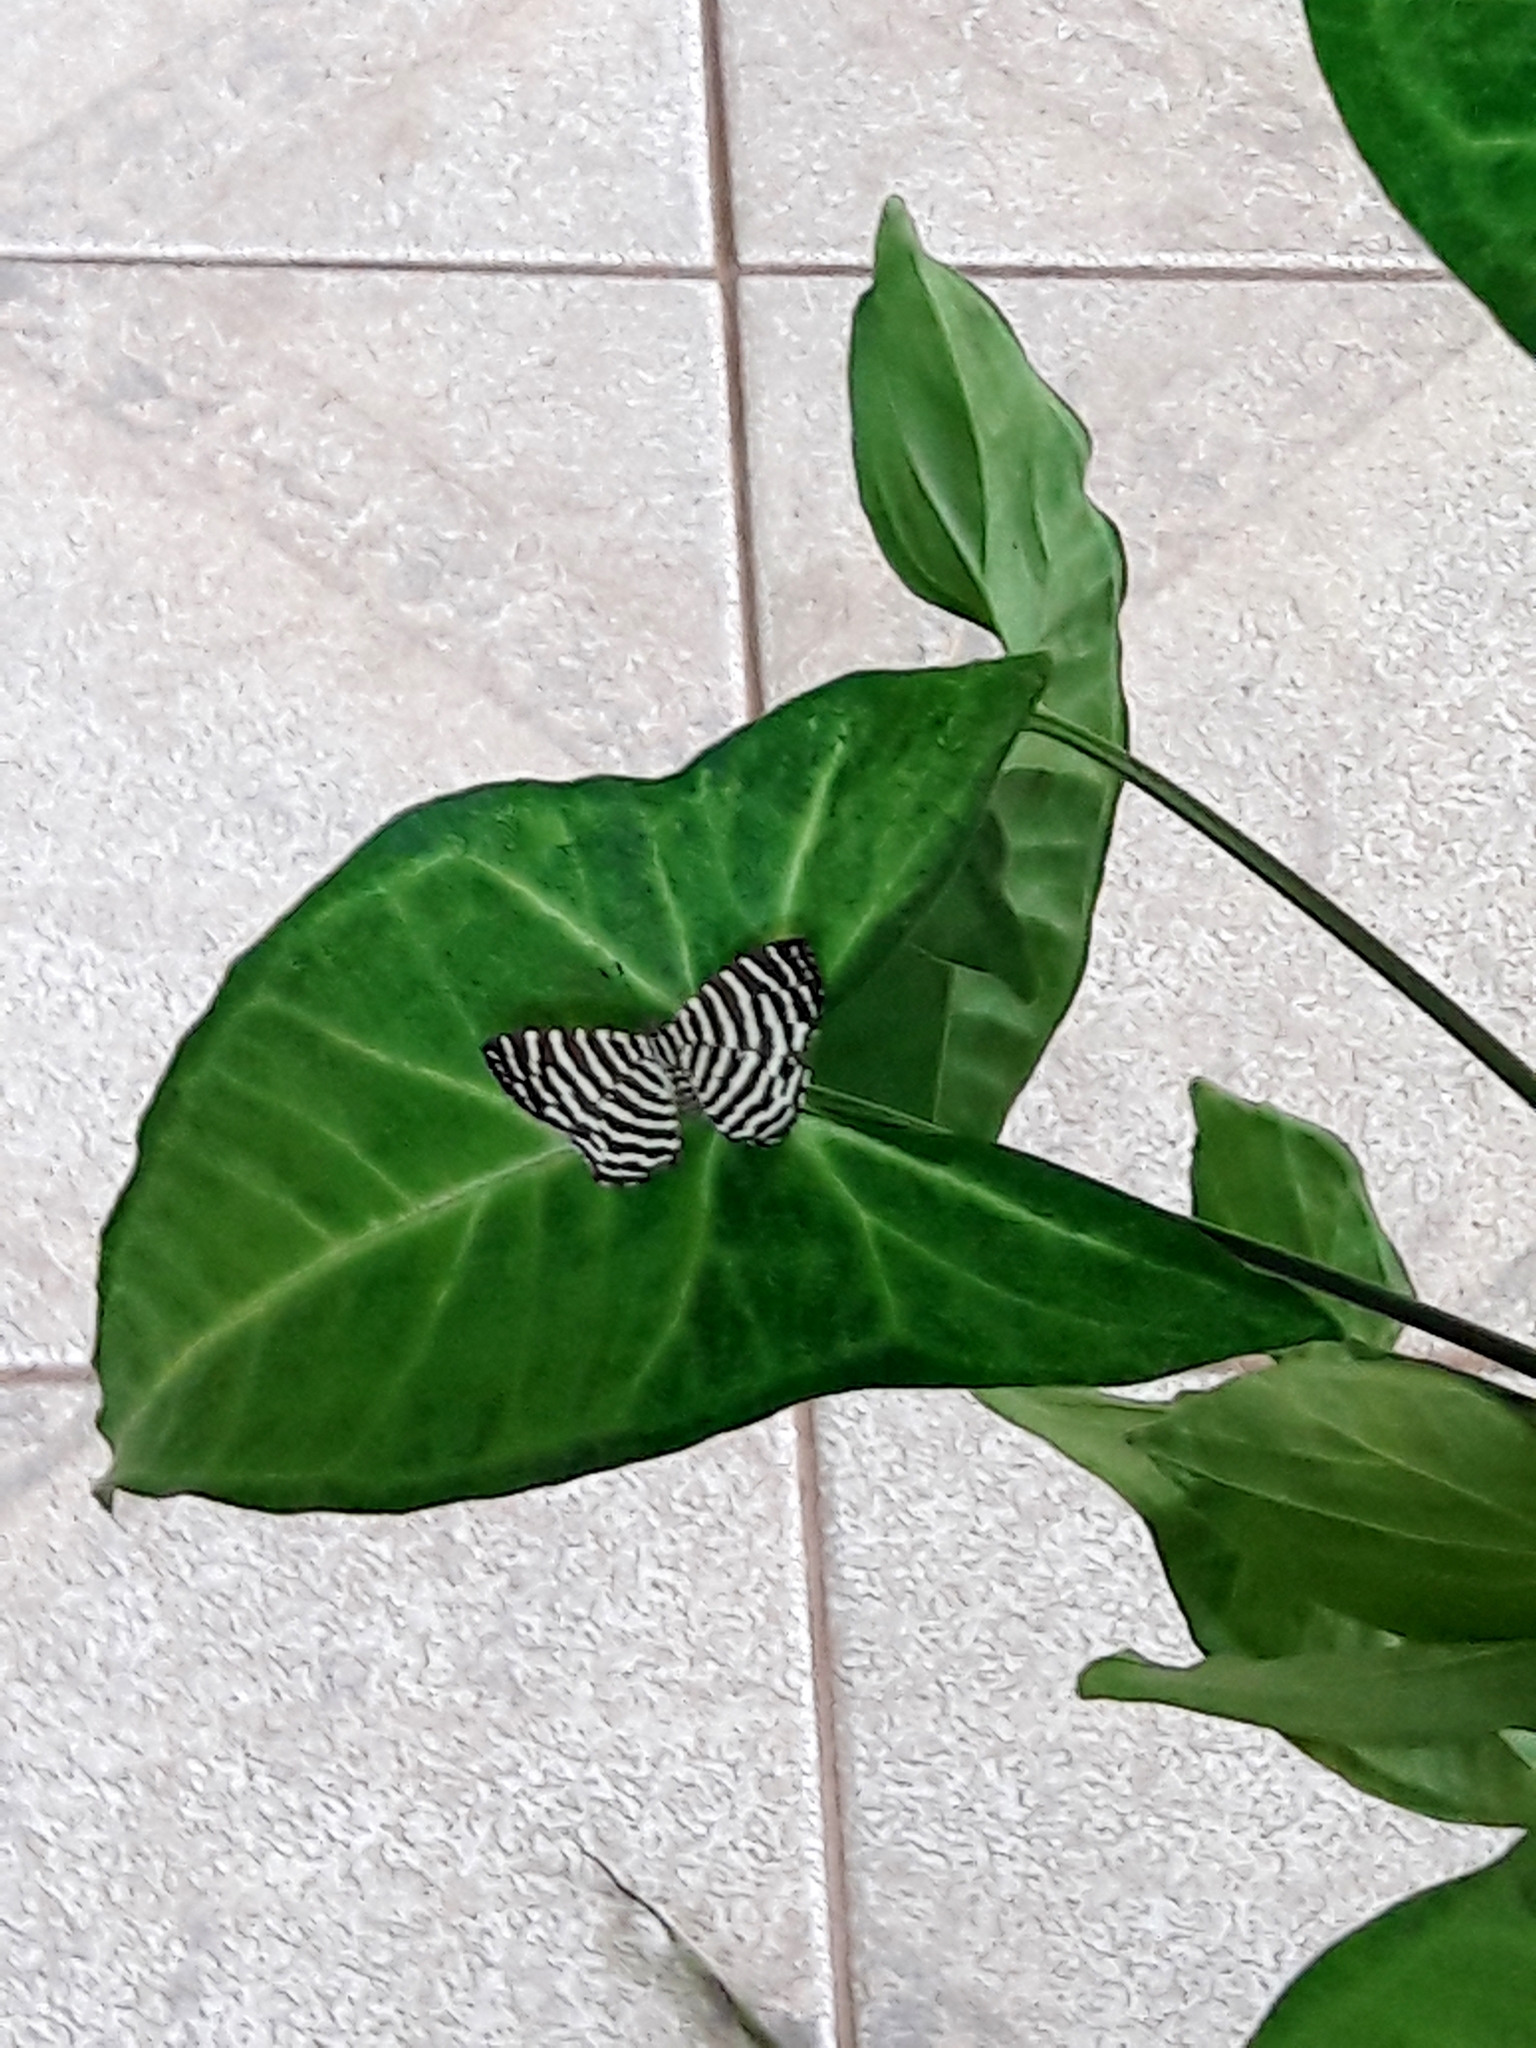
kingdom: Animalia
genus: Hyphilaria
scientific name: Hyphilaria thasus
